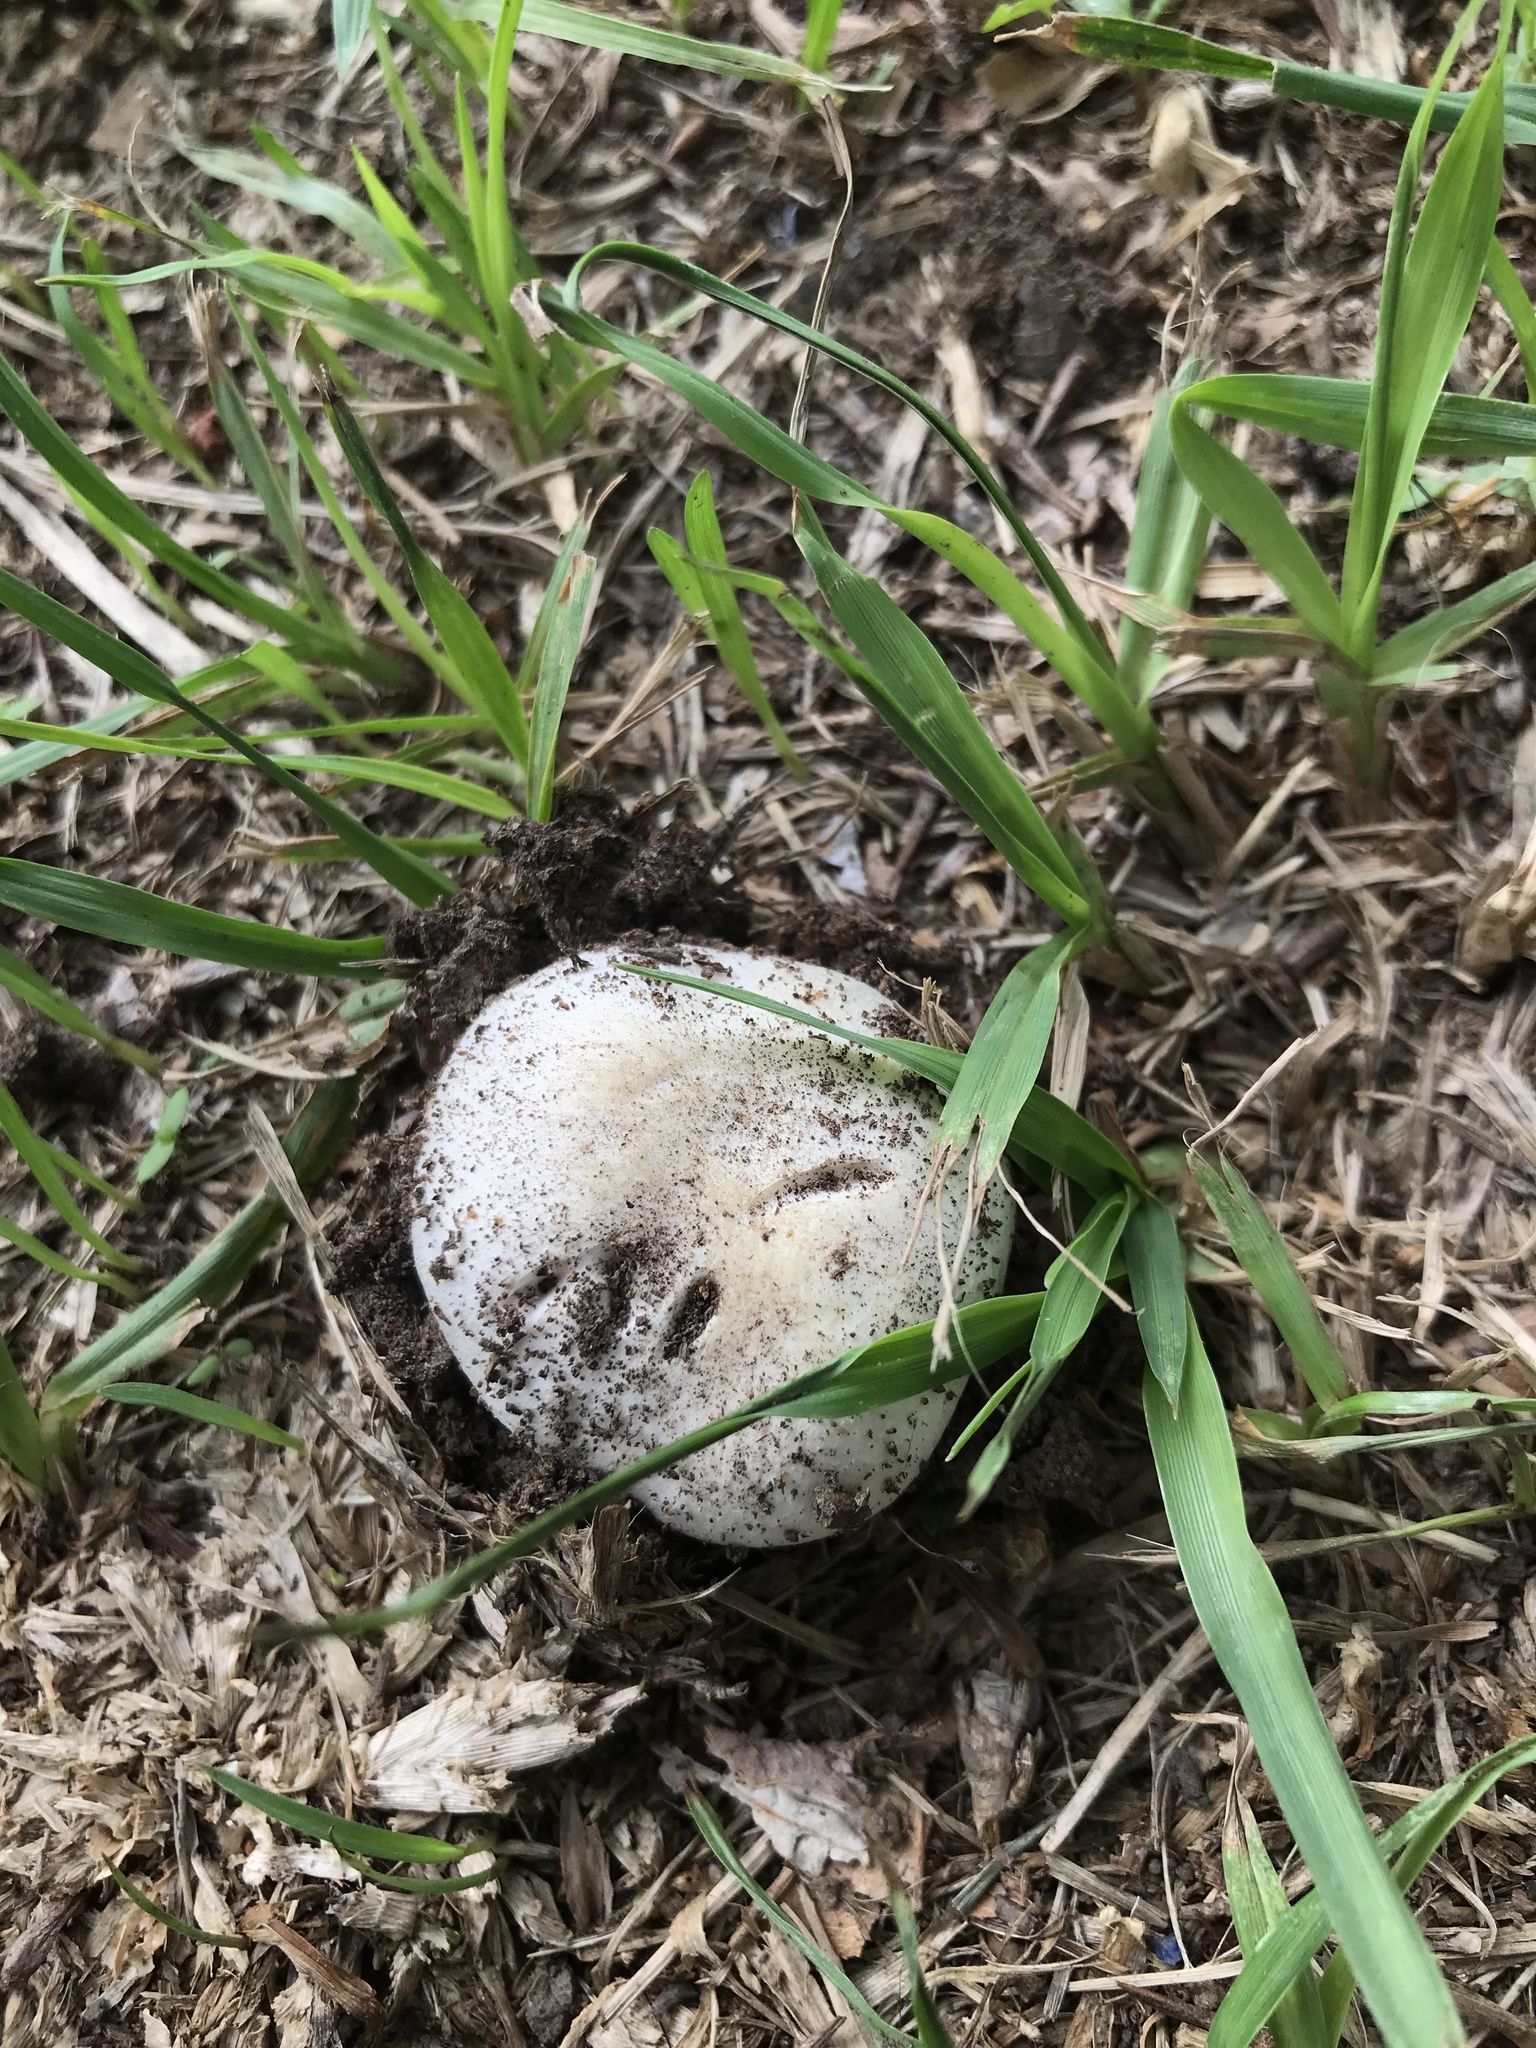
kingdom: Fungi
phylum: Basidiomycota
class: Agaricomycetes
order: Agaricales
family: Agaricaceae
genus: Agaricus
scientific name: Agaricus campestris
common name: Field mushroom
